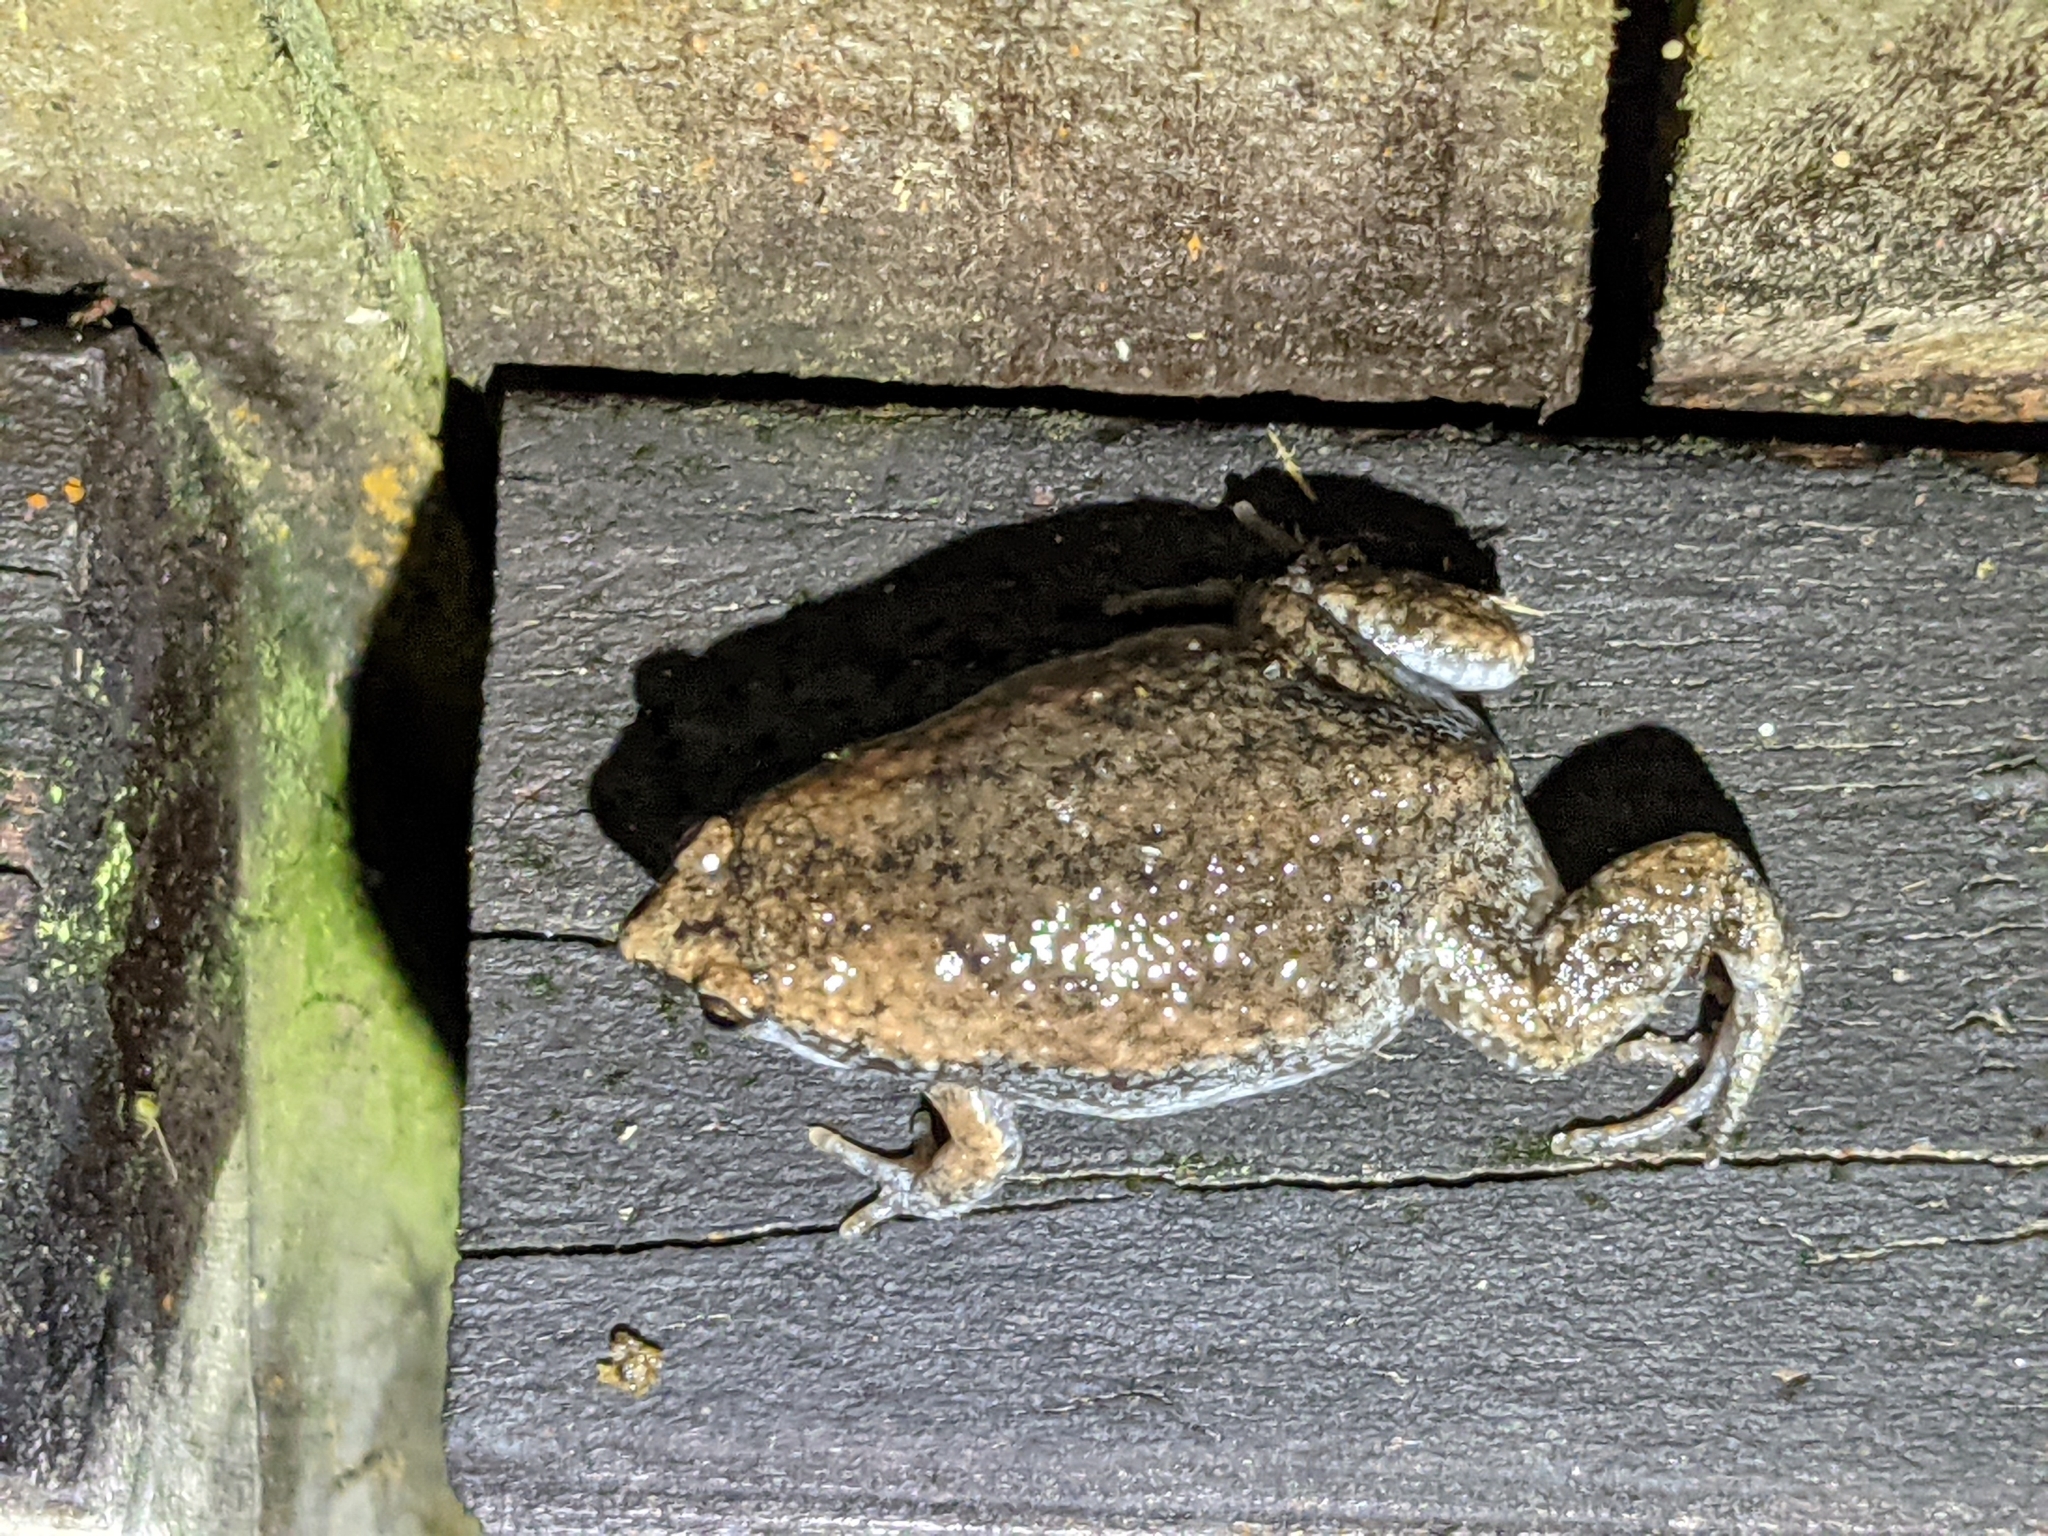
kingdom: Animalia
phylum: Chordata
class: Amphibia
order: Anura
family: Microhylidae
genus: Gastrophryne
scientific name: Gastrophryne carolinensis
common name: Eastern narrowmouth toad
